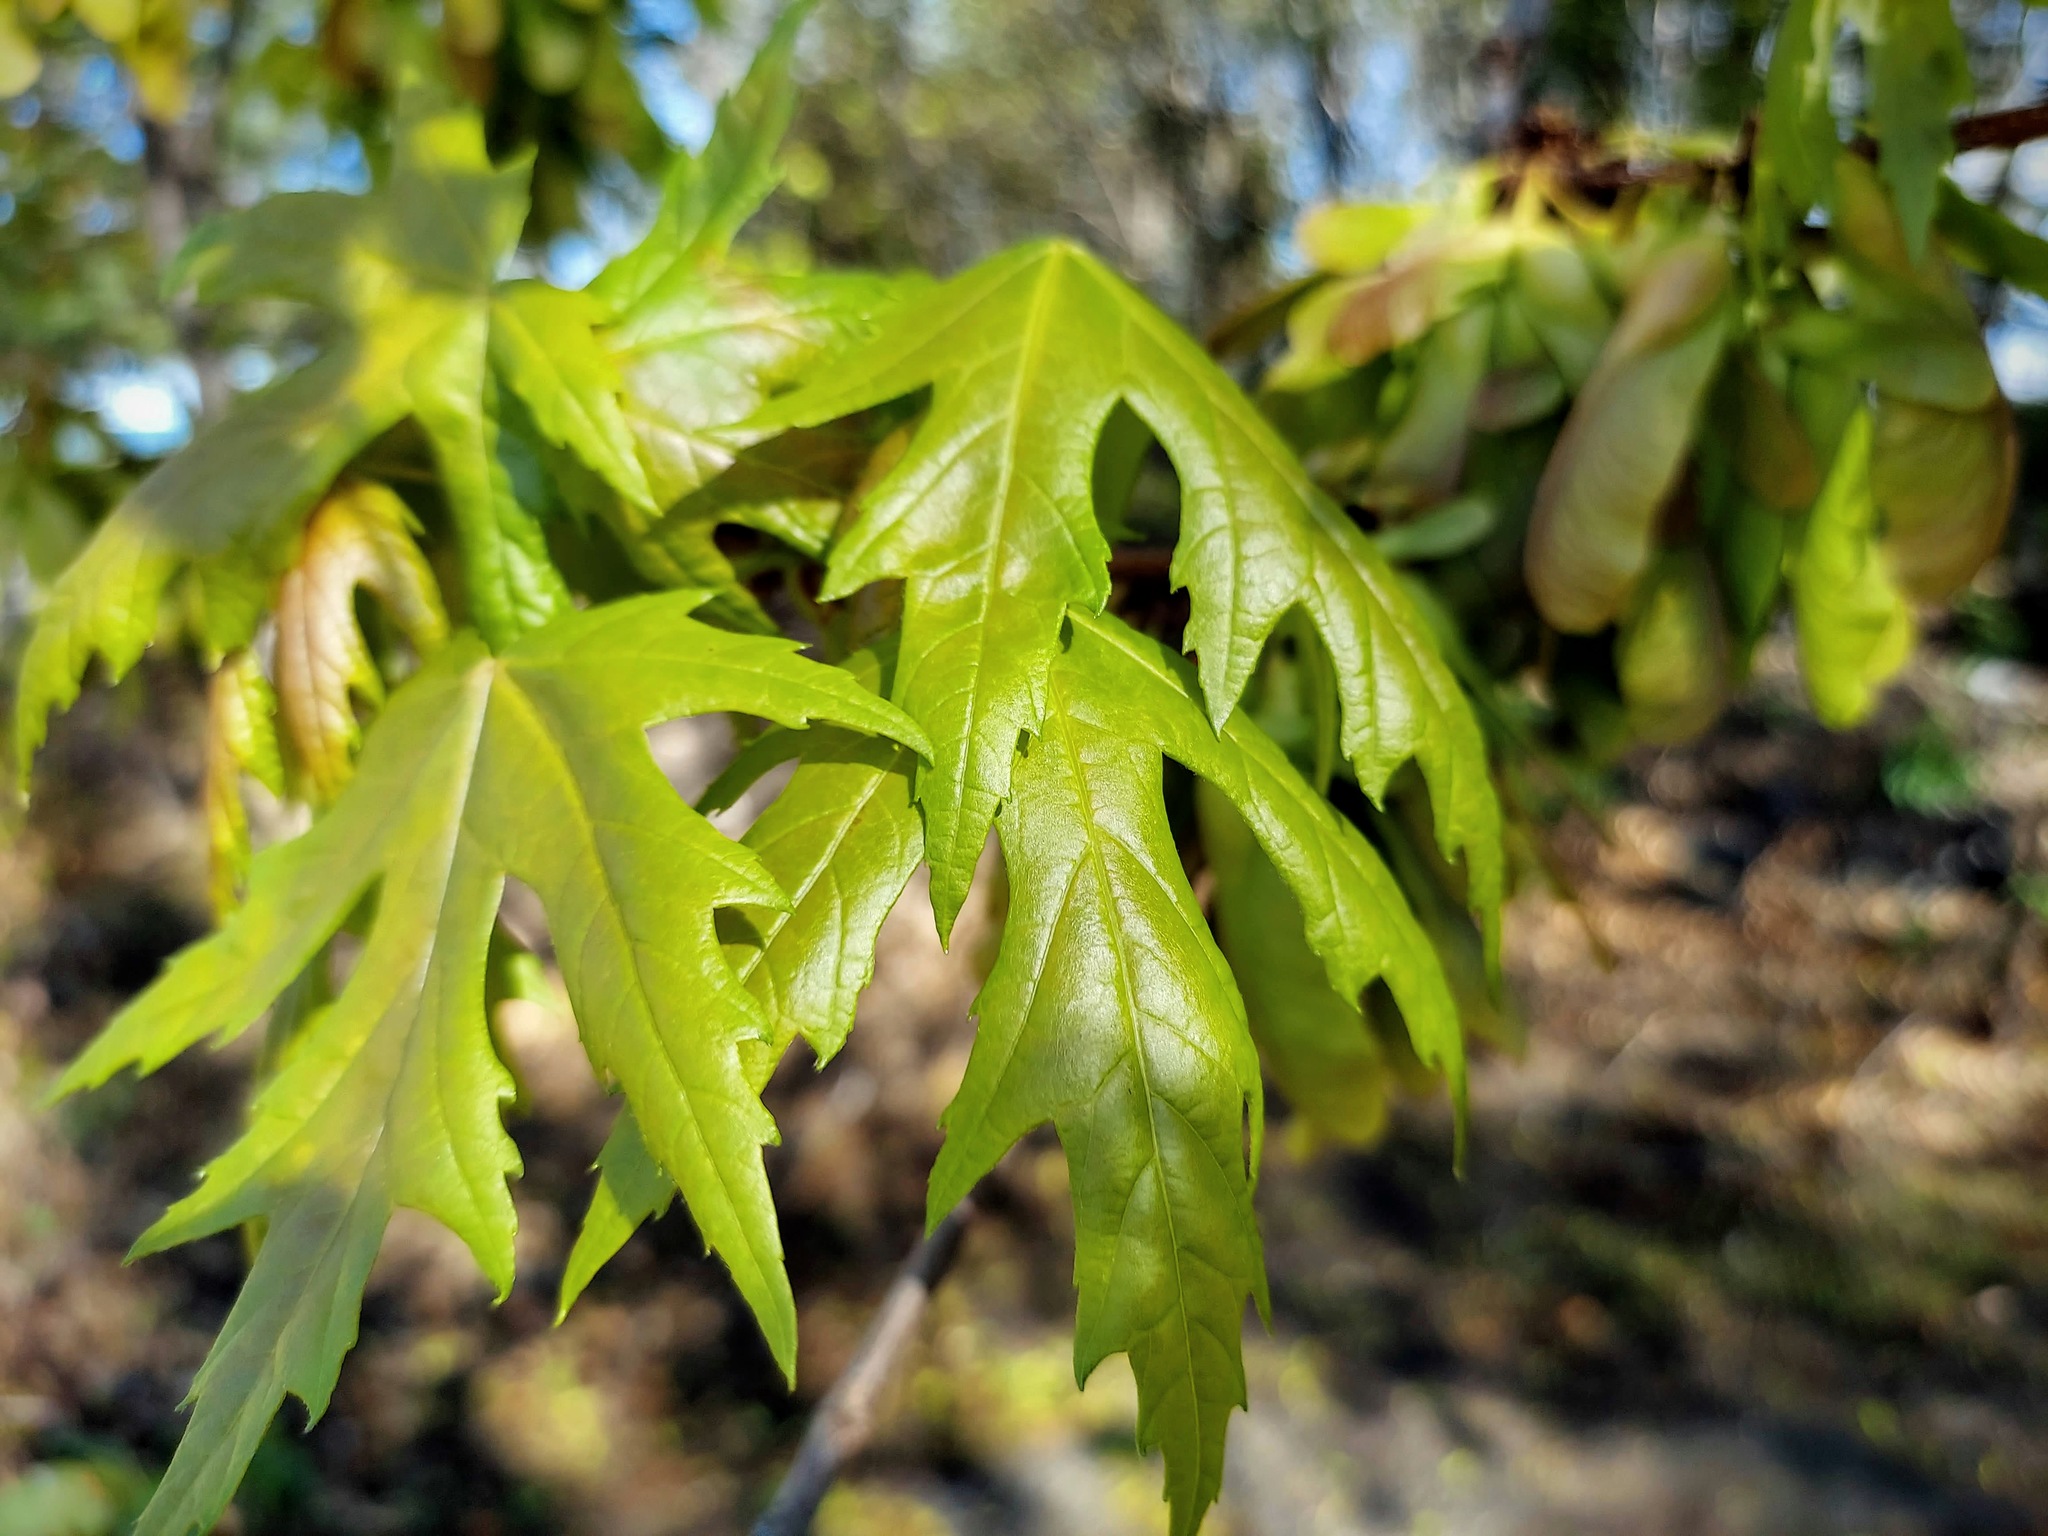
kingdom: Plantae
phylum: Tracheophyta
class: Magnoliopsida
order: Sapindales
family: Sapindaceae
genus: Acer
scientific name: Acer saccharinum
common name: Silver maple
